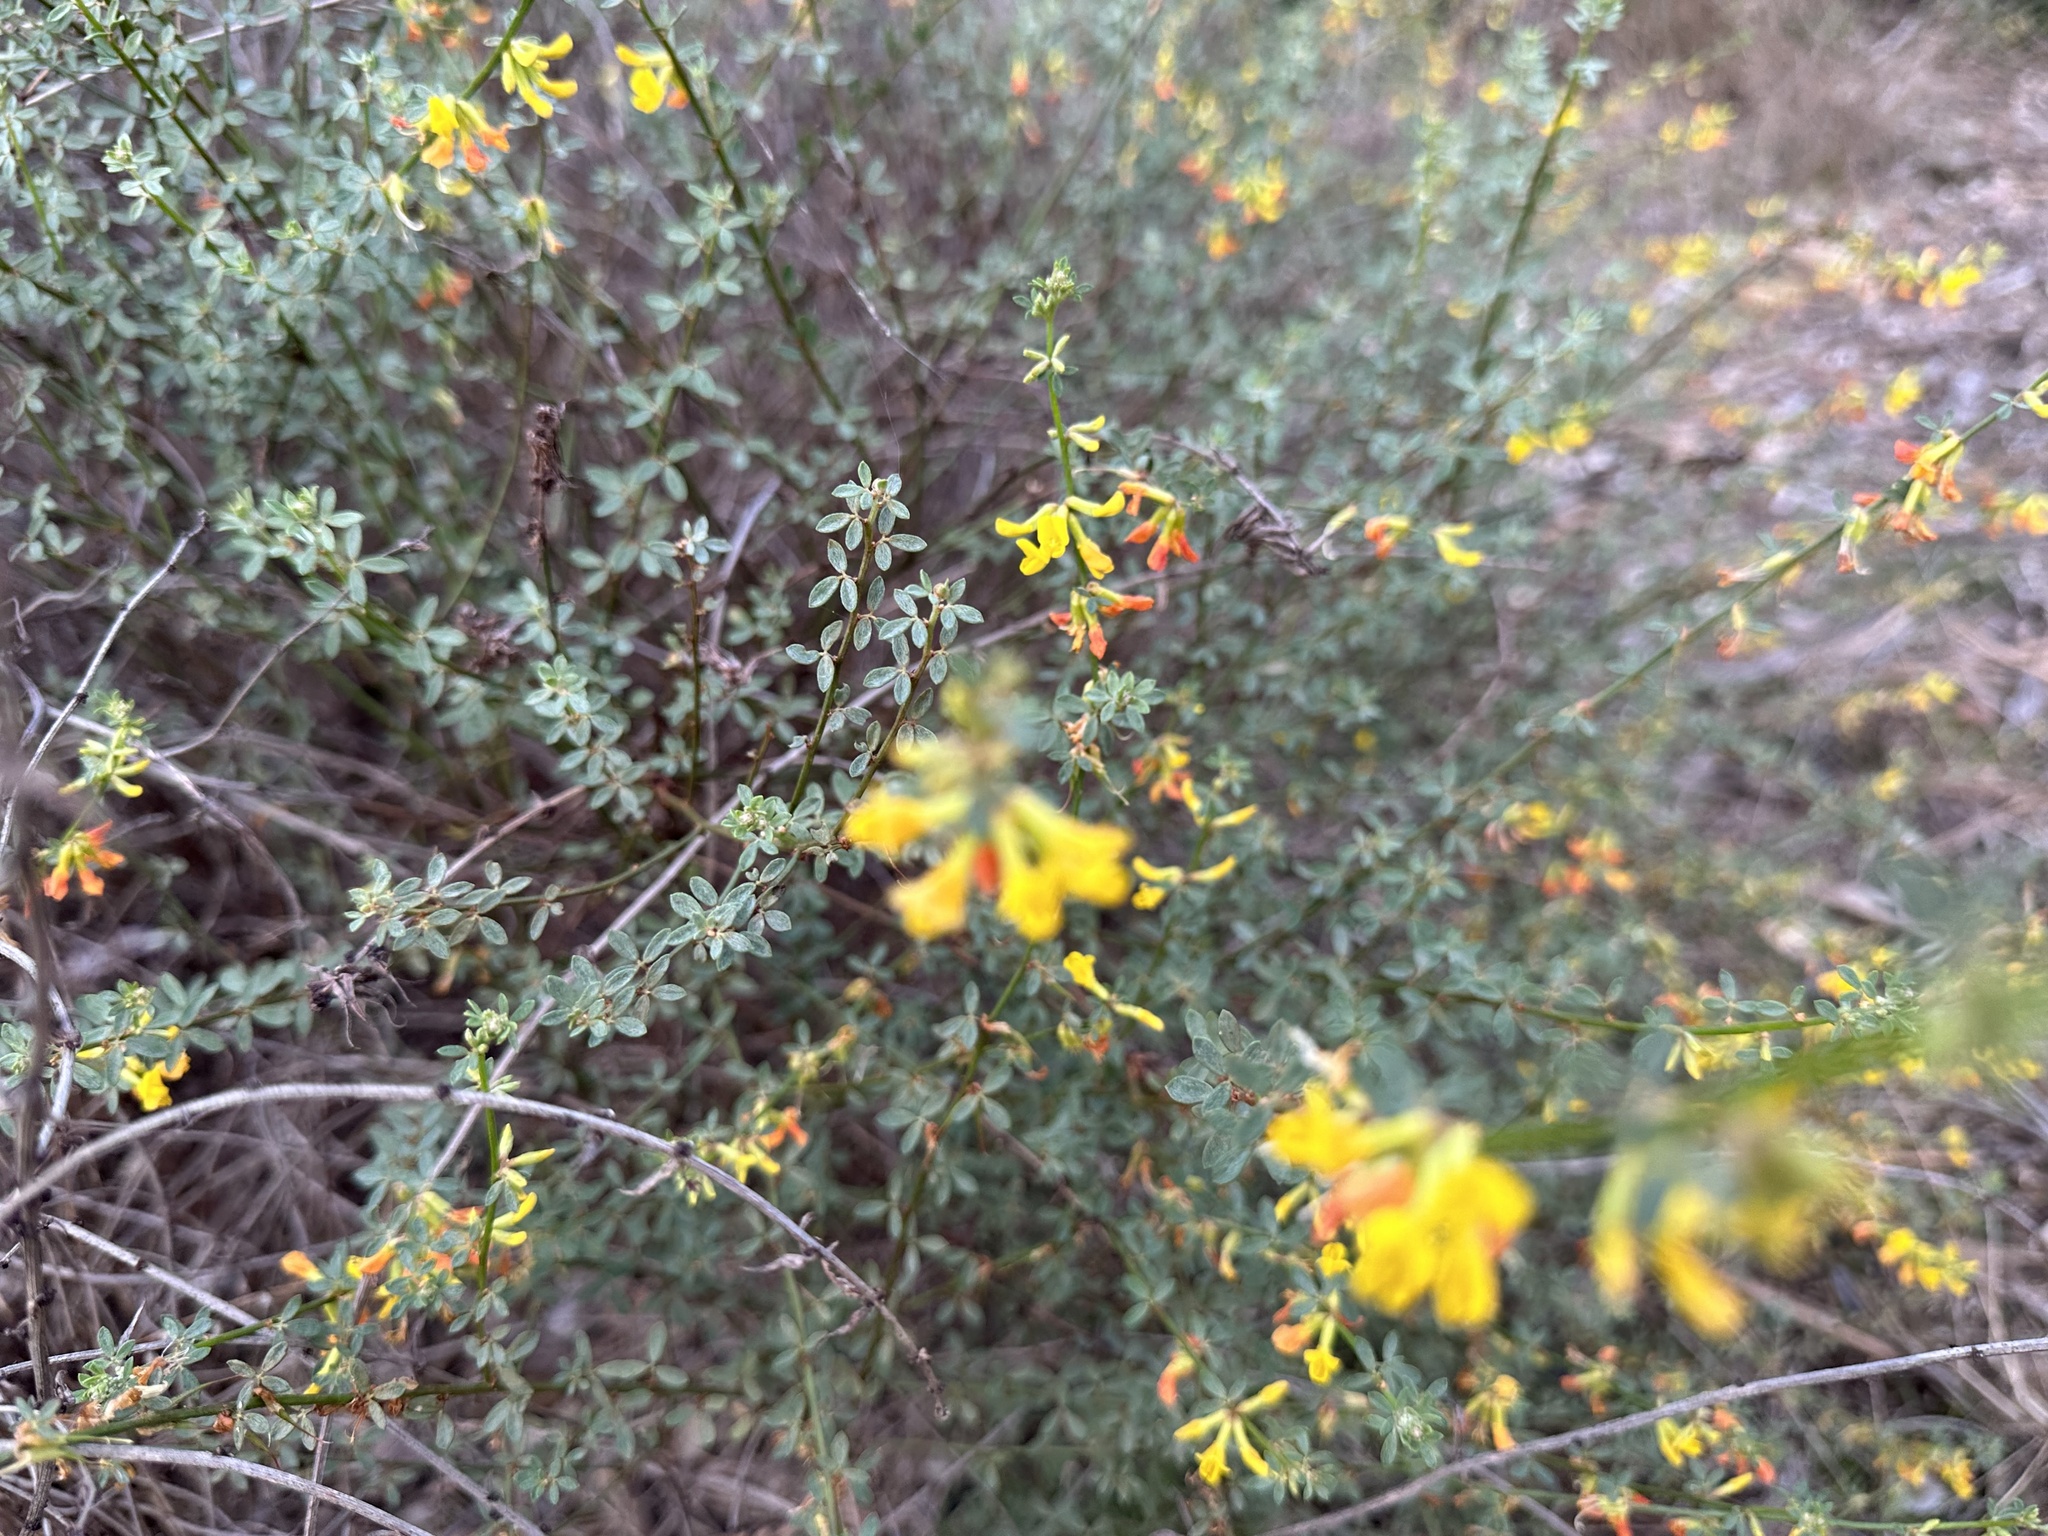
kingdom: Plantae
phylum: Tracheophyta
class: Magnoliopsida
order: Fabales
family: Fabaceae
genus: Acmispon
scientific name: Acmispon glaber
